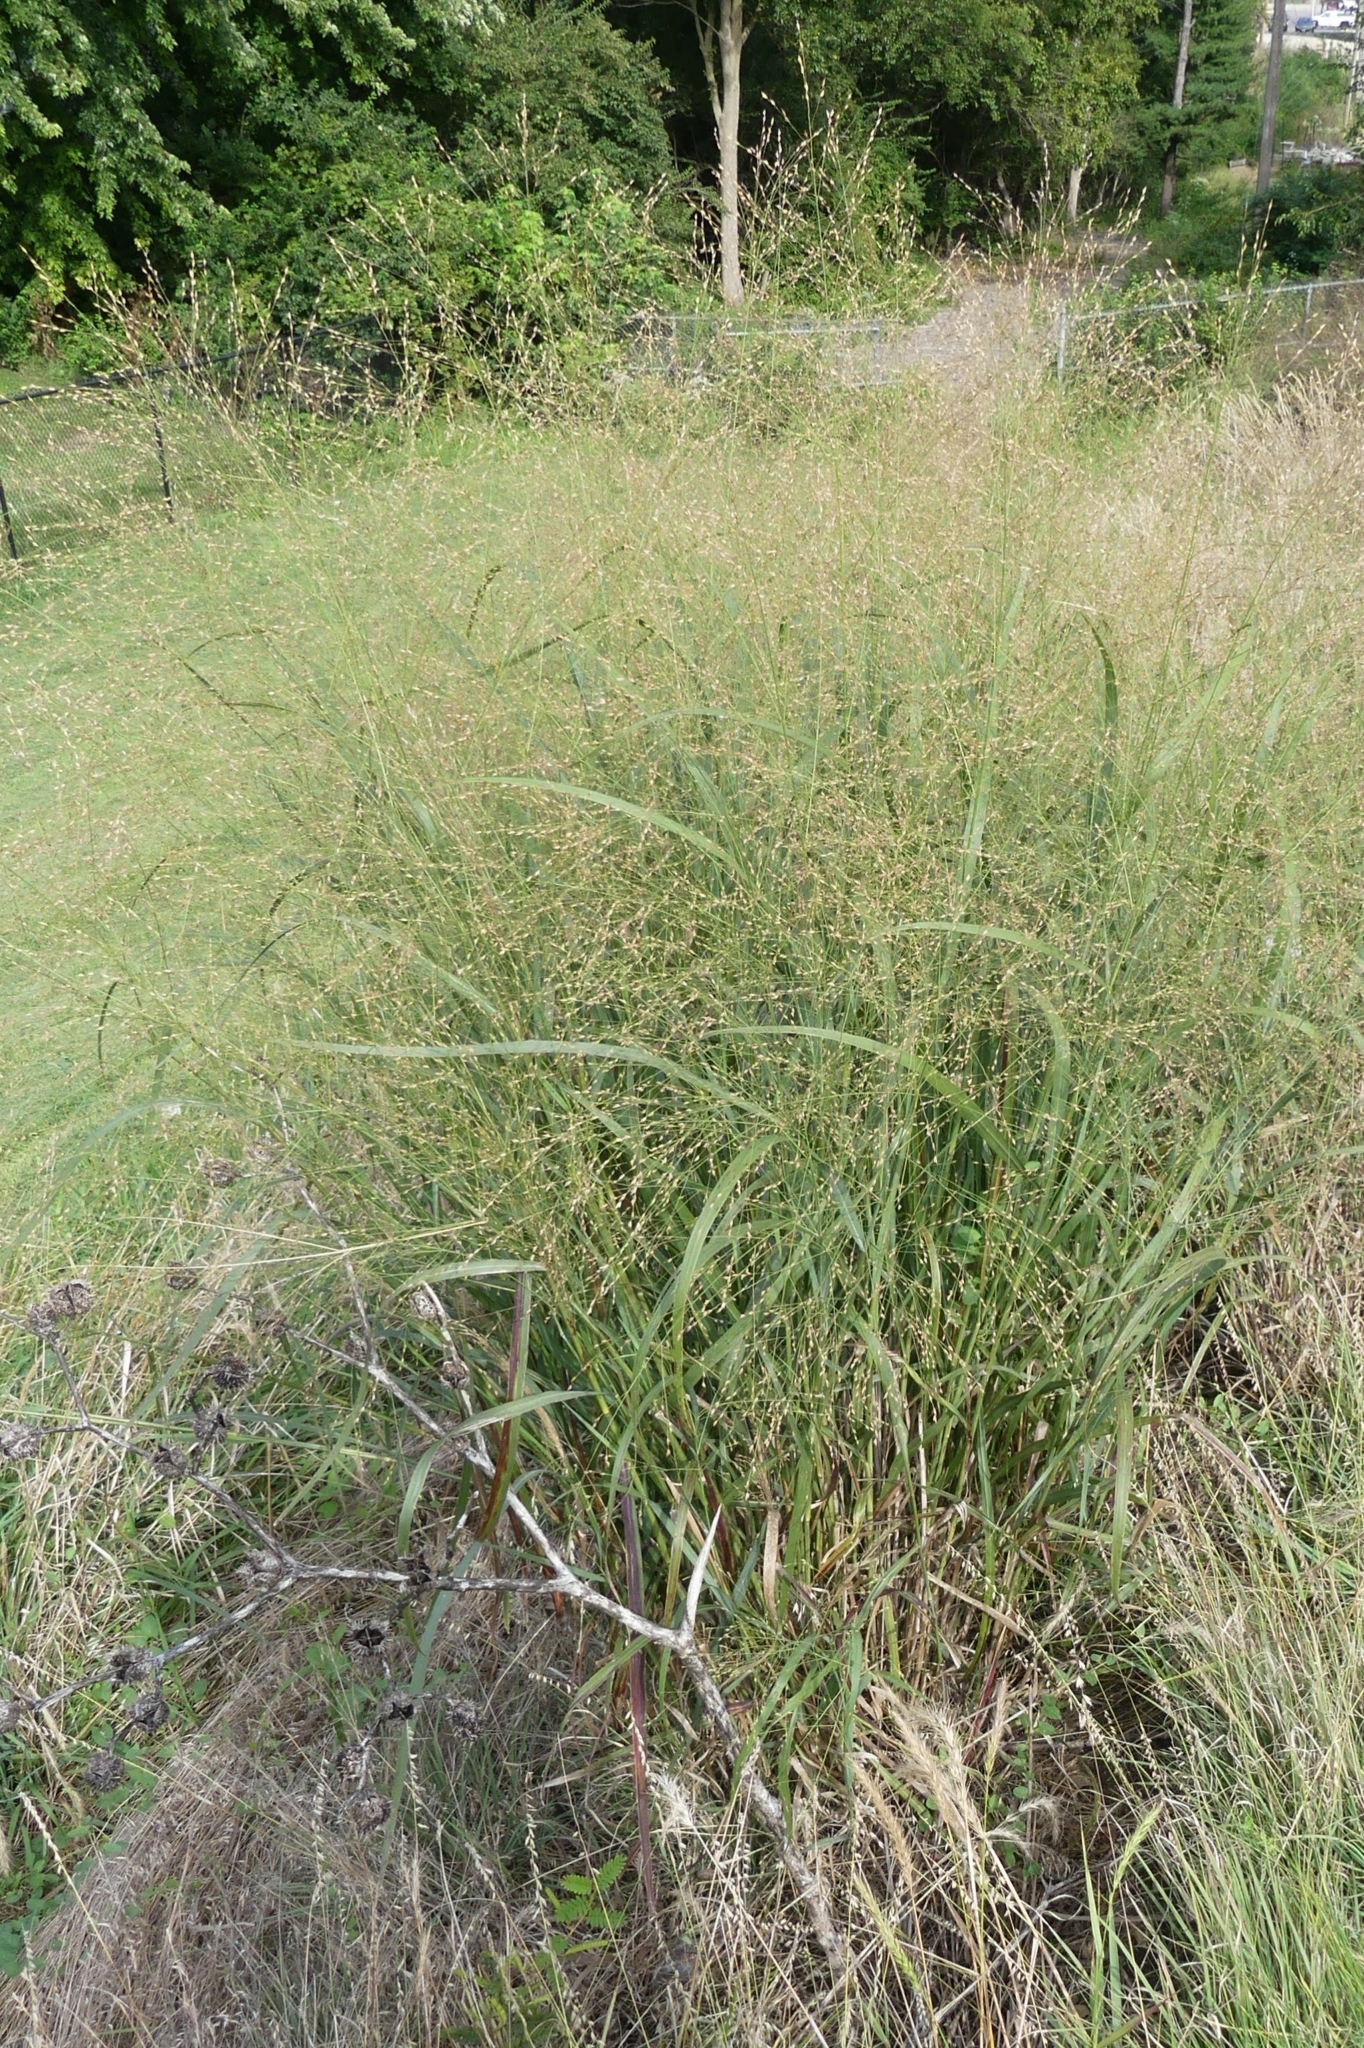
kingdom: Plantae
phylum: Tracheophyta
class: Liliopsida
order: Poales
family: Poaceae
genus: Panicum
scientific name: Panicum virgatum
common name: Switchgrass
